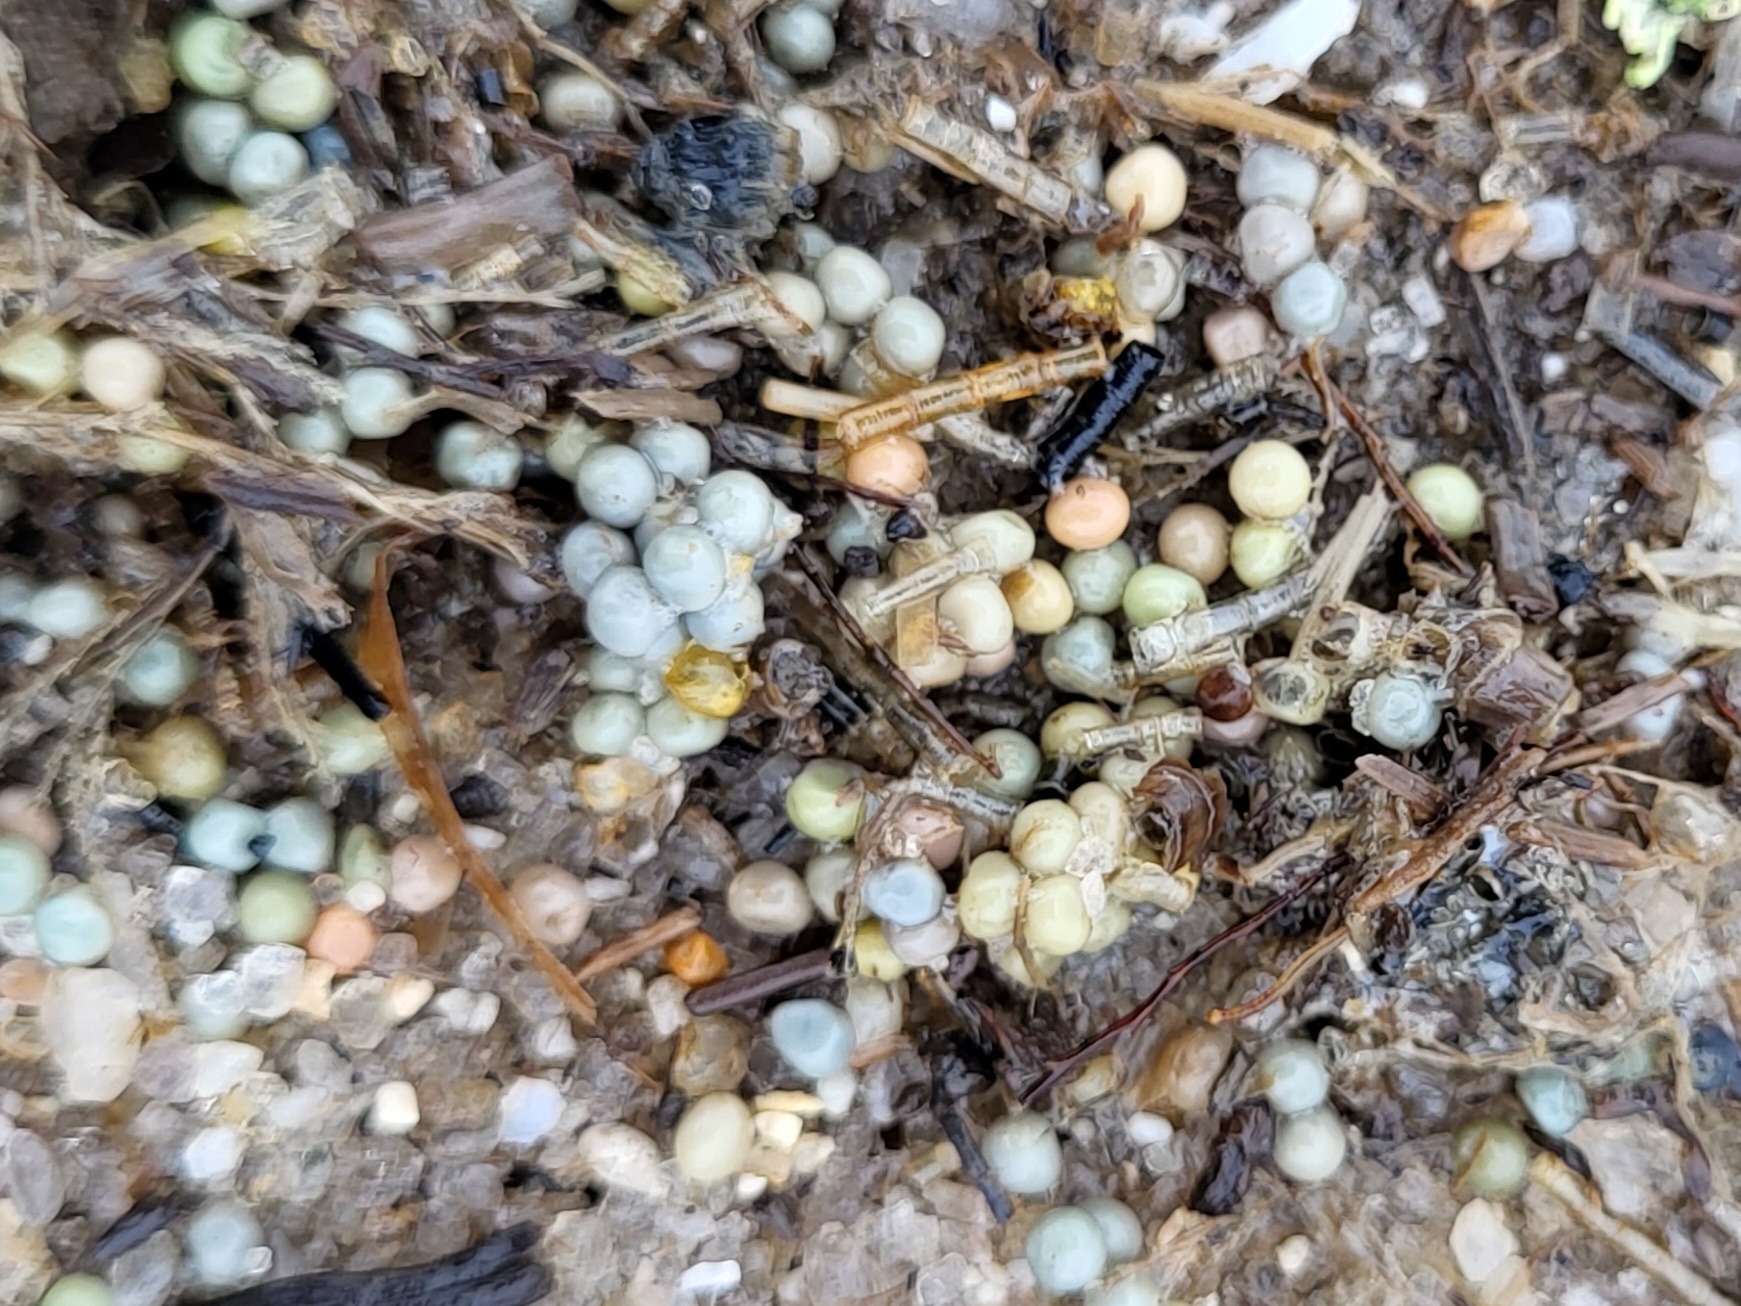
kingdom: Animalia
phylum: Arthropoda
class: Merostomata
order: Xiphosurida
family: Limulidae
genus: Limulus
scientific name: Limulus polyphemus
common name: Horseshoe crab
